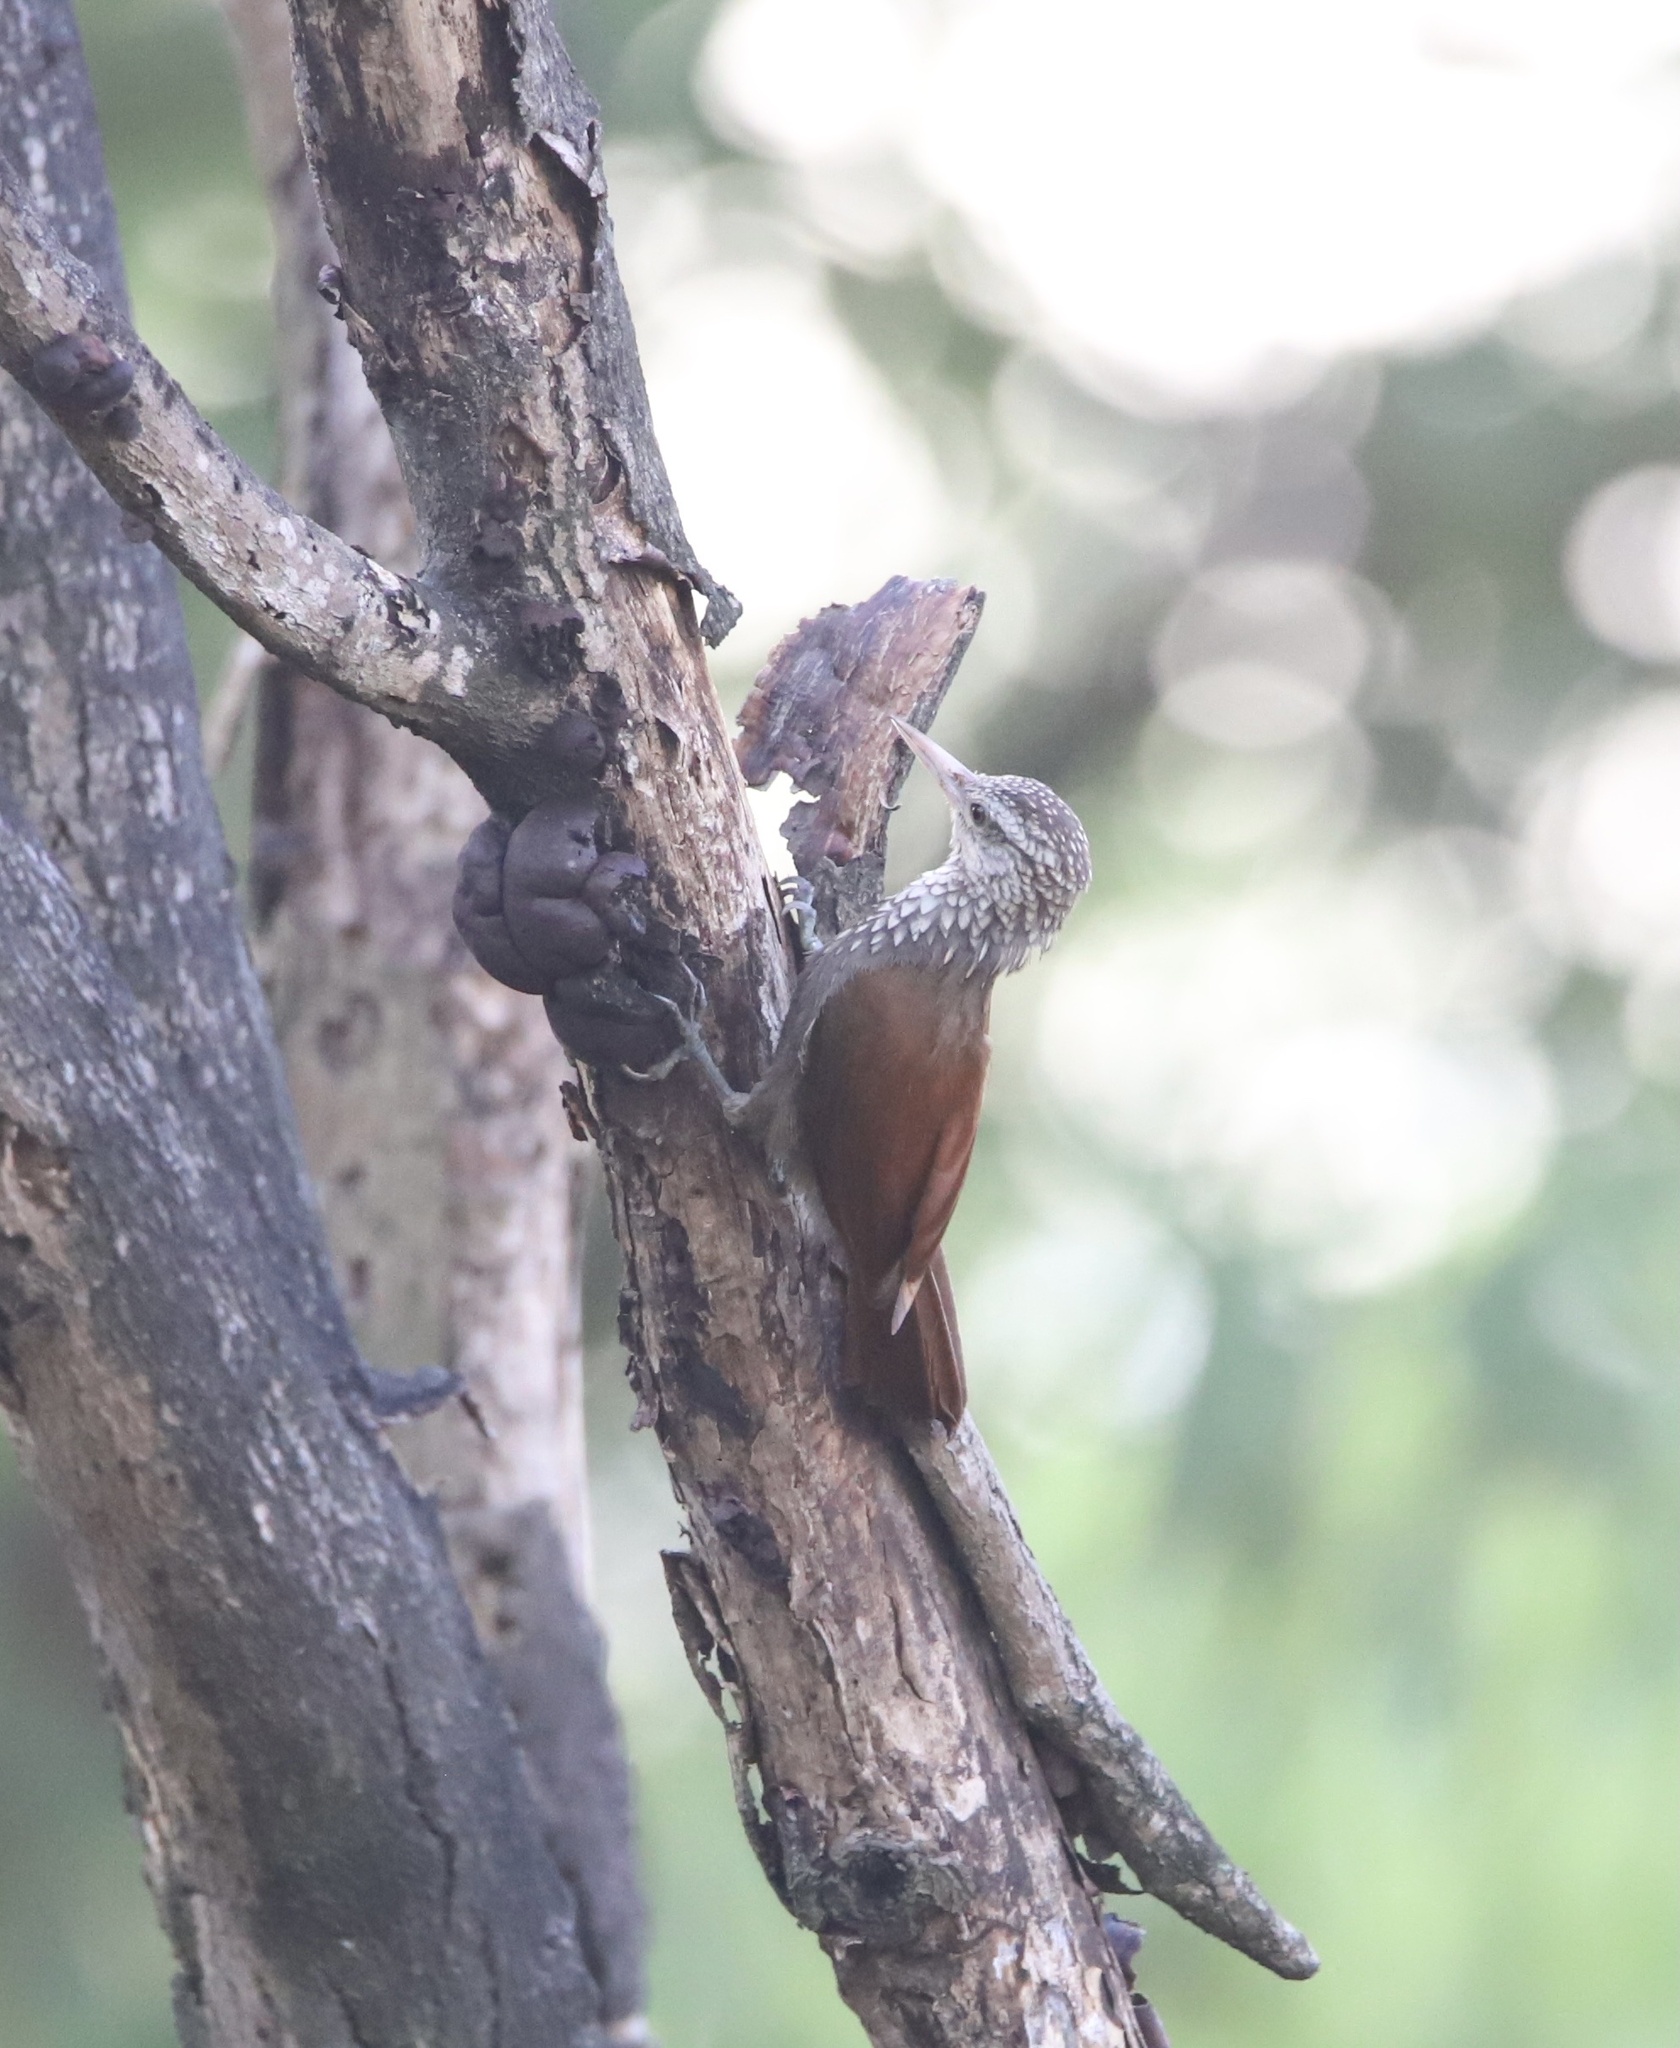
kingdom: Animalia
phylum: Chordata
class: Aves
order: Passeriformes
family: Furnariidae
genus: Xiphorhynchus
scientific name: Xiphorhynchus picus
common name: Straight-billed woodcreeper
